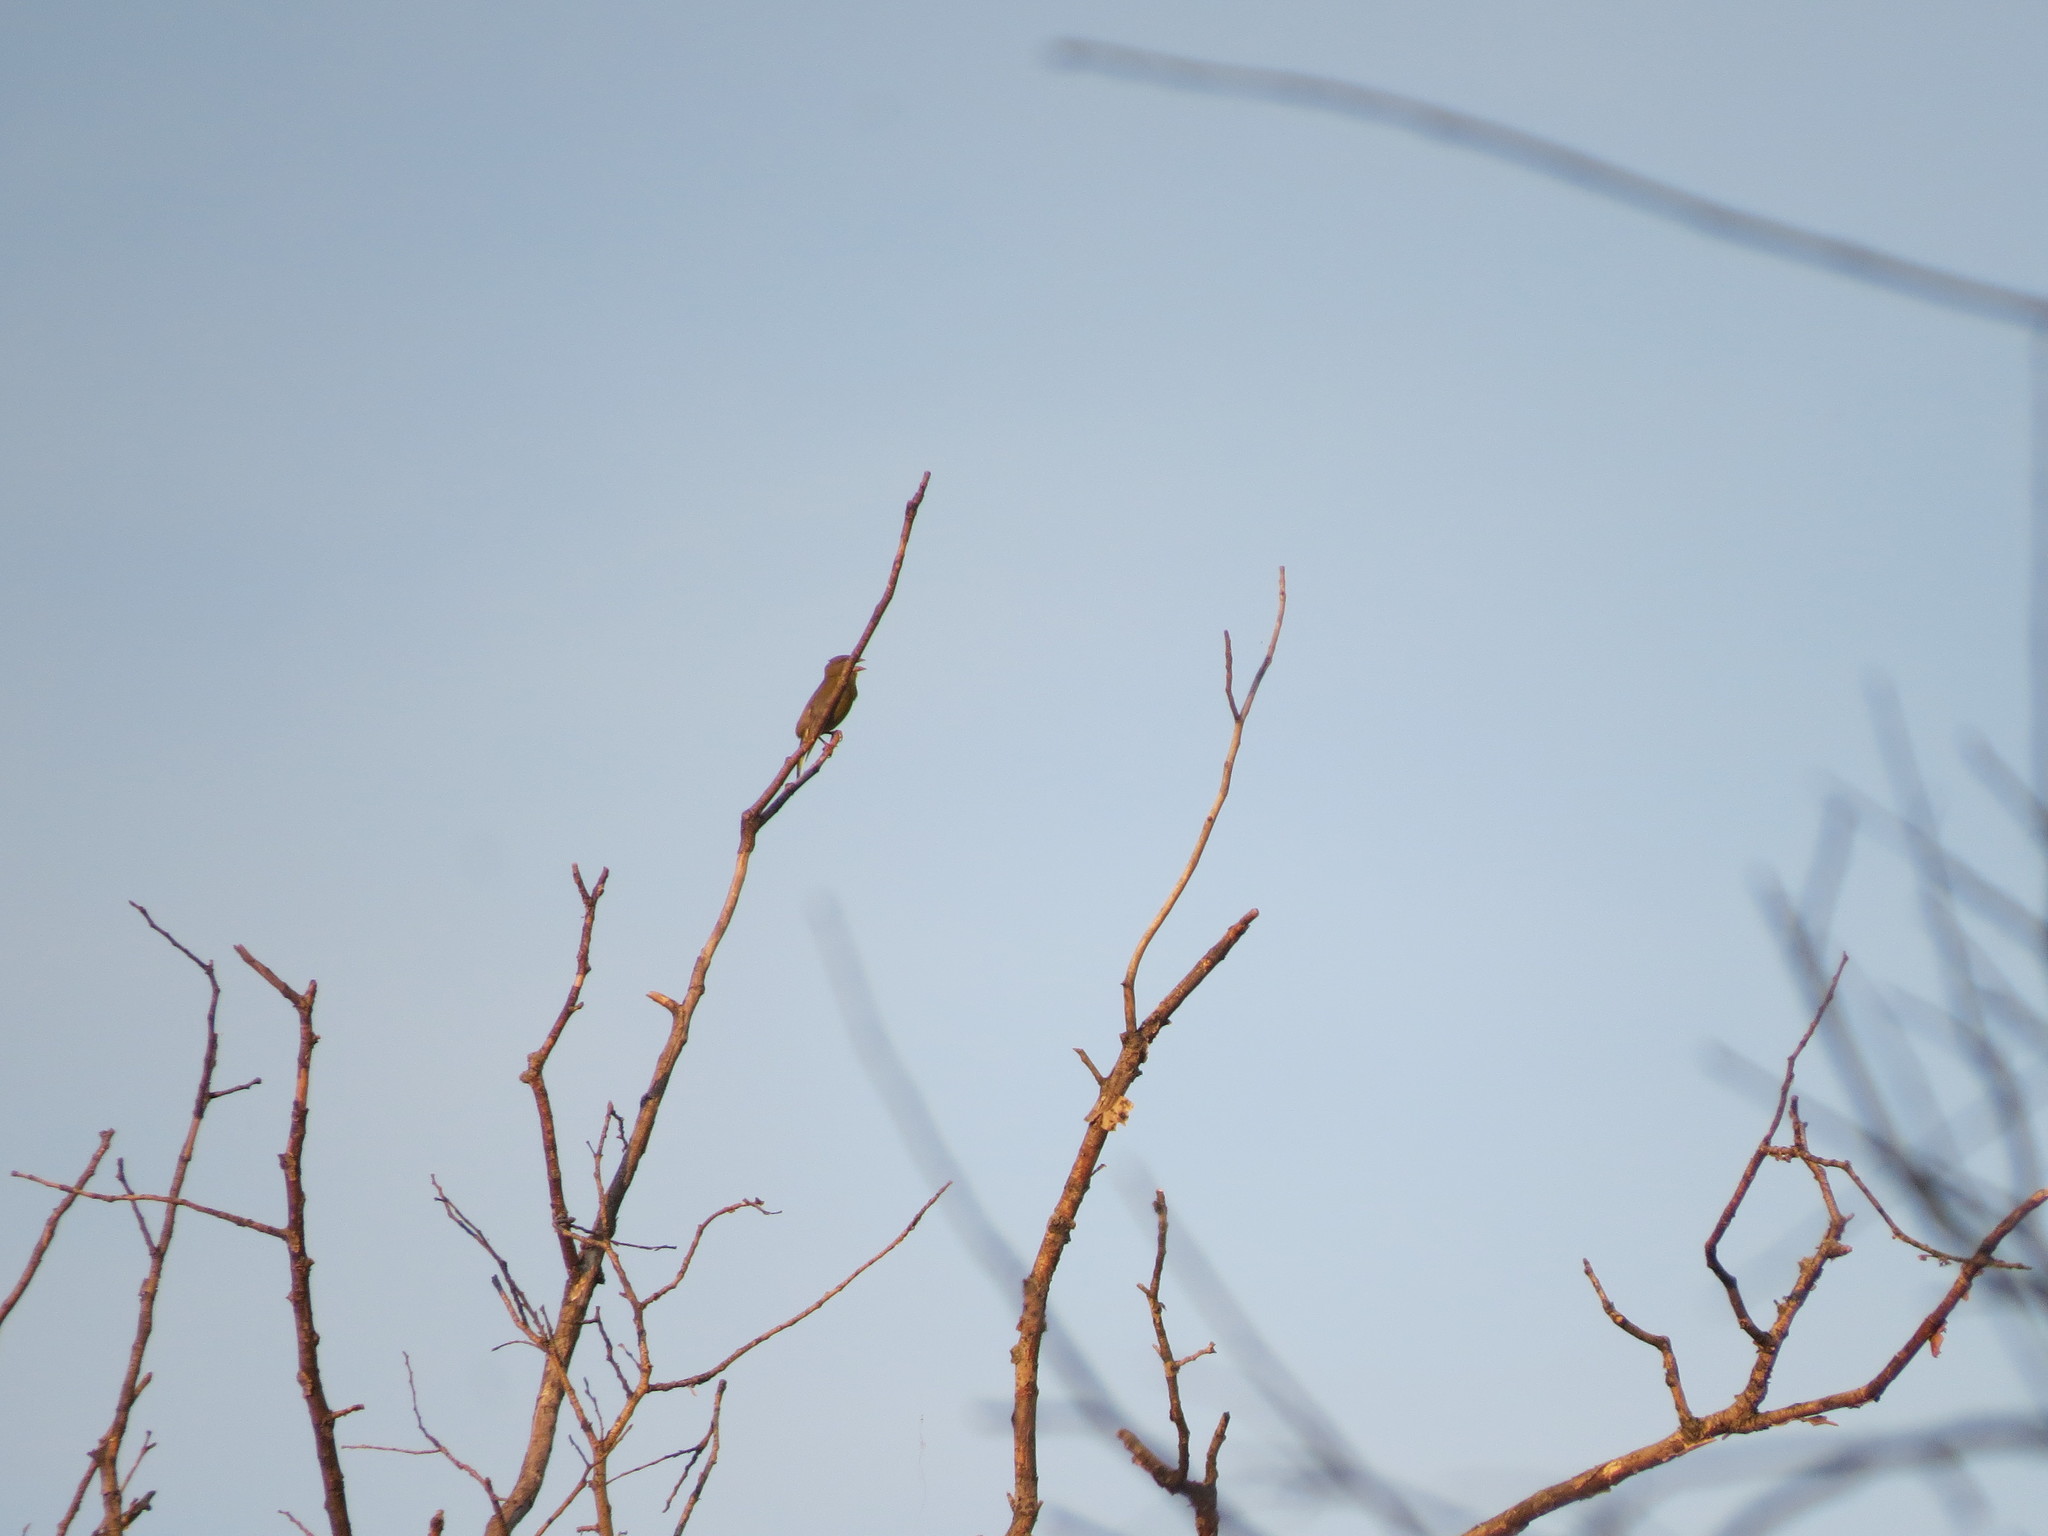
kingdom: Plantae
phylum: Tracheophyta
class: Liliopsida
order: Poales
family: Poaceae
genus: Chloris
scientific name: Chloris chloris
